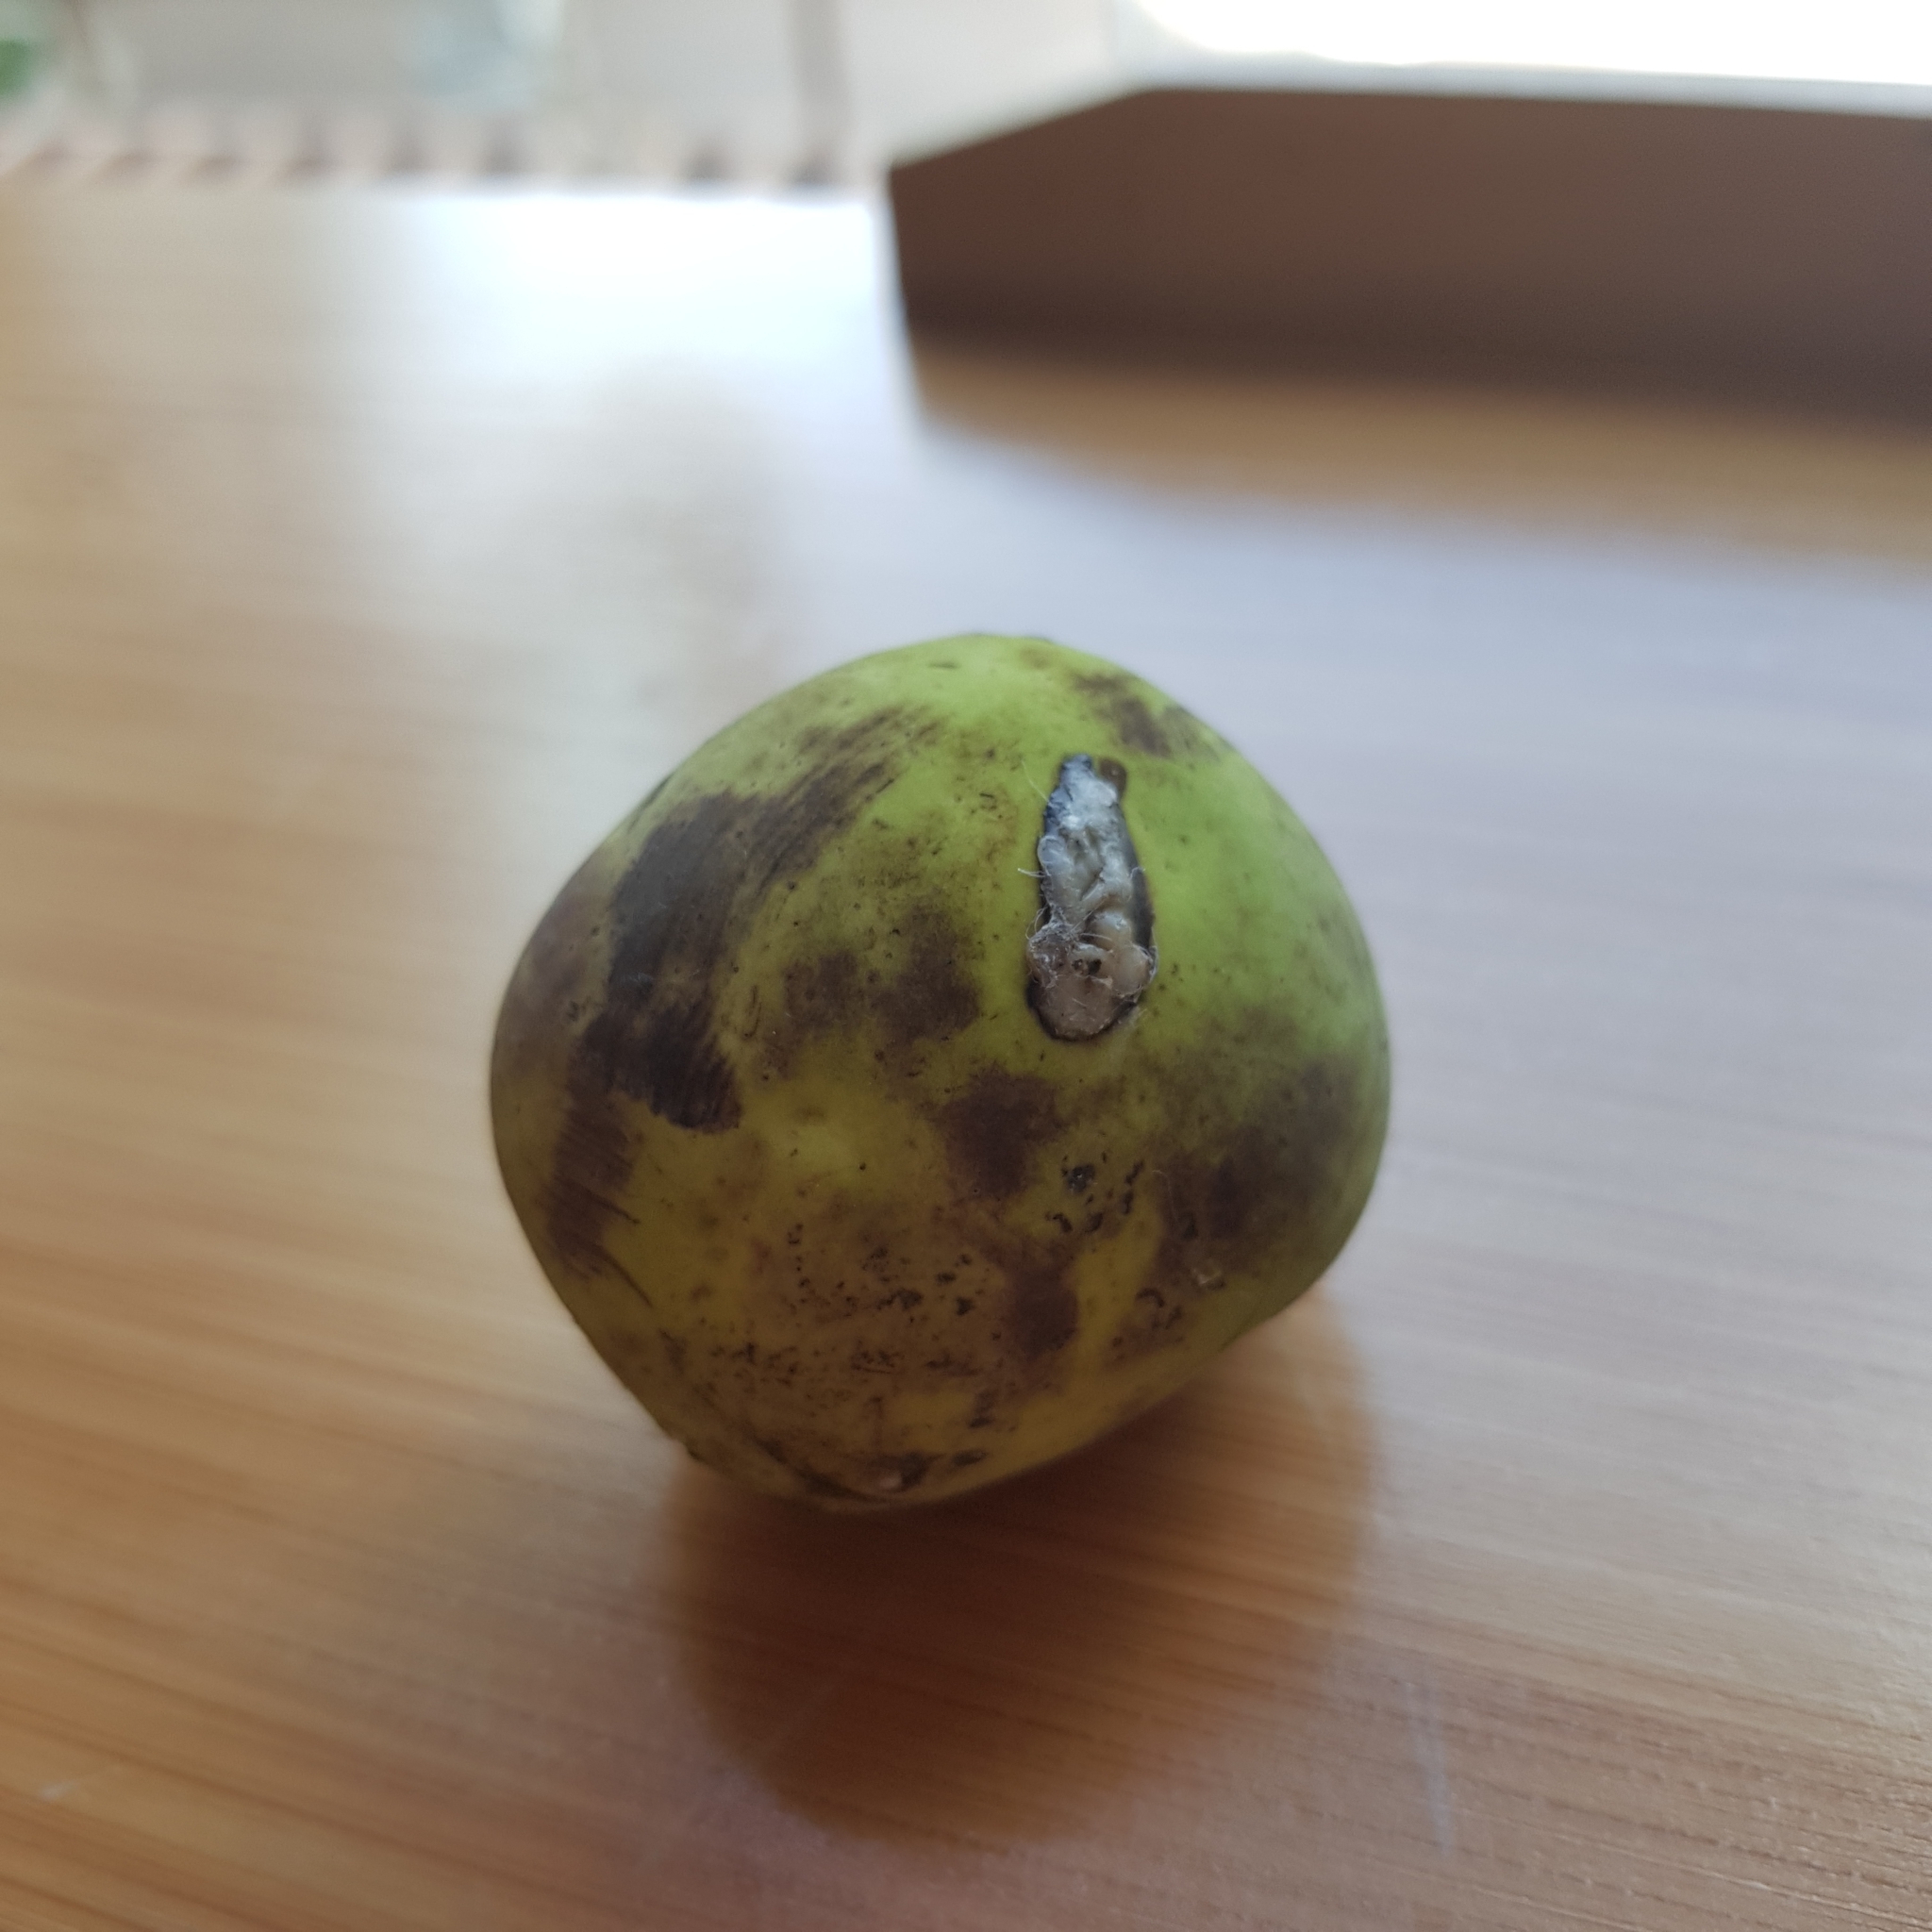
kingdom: Plantae
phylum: Tracheophyta
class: Magnoliopsida
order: Rosales
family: Moraceae
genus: Artocarpus
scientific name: Artocarpus lacucha
